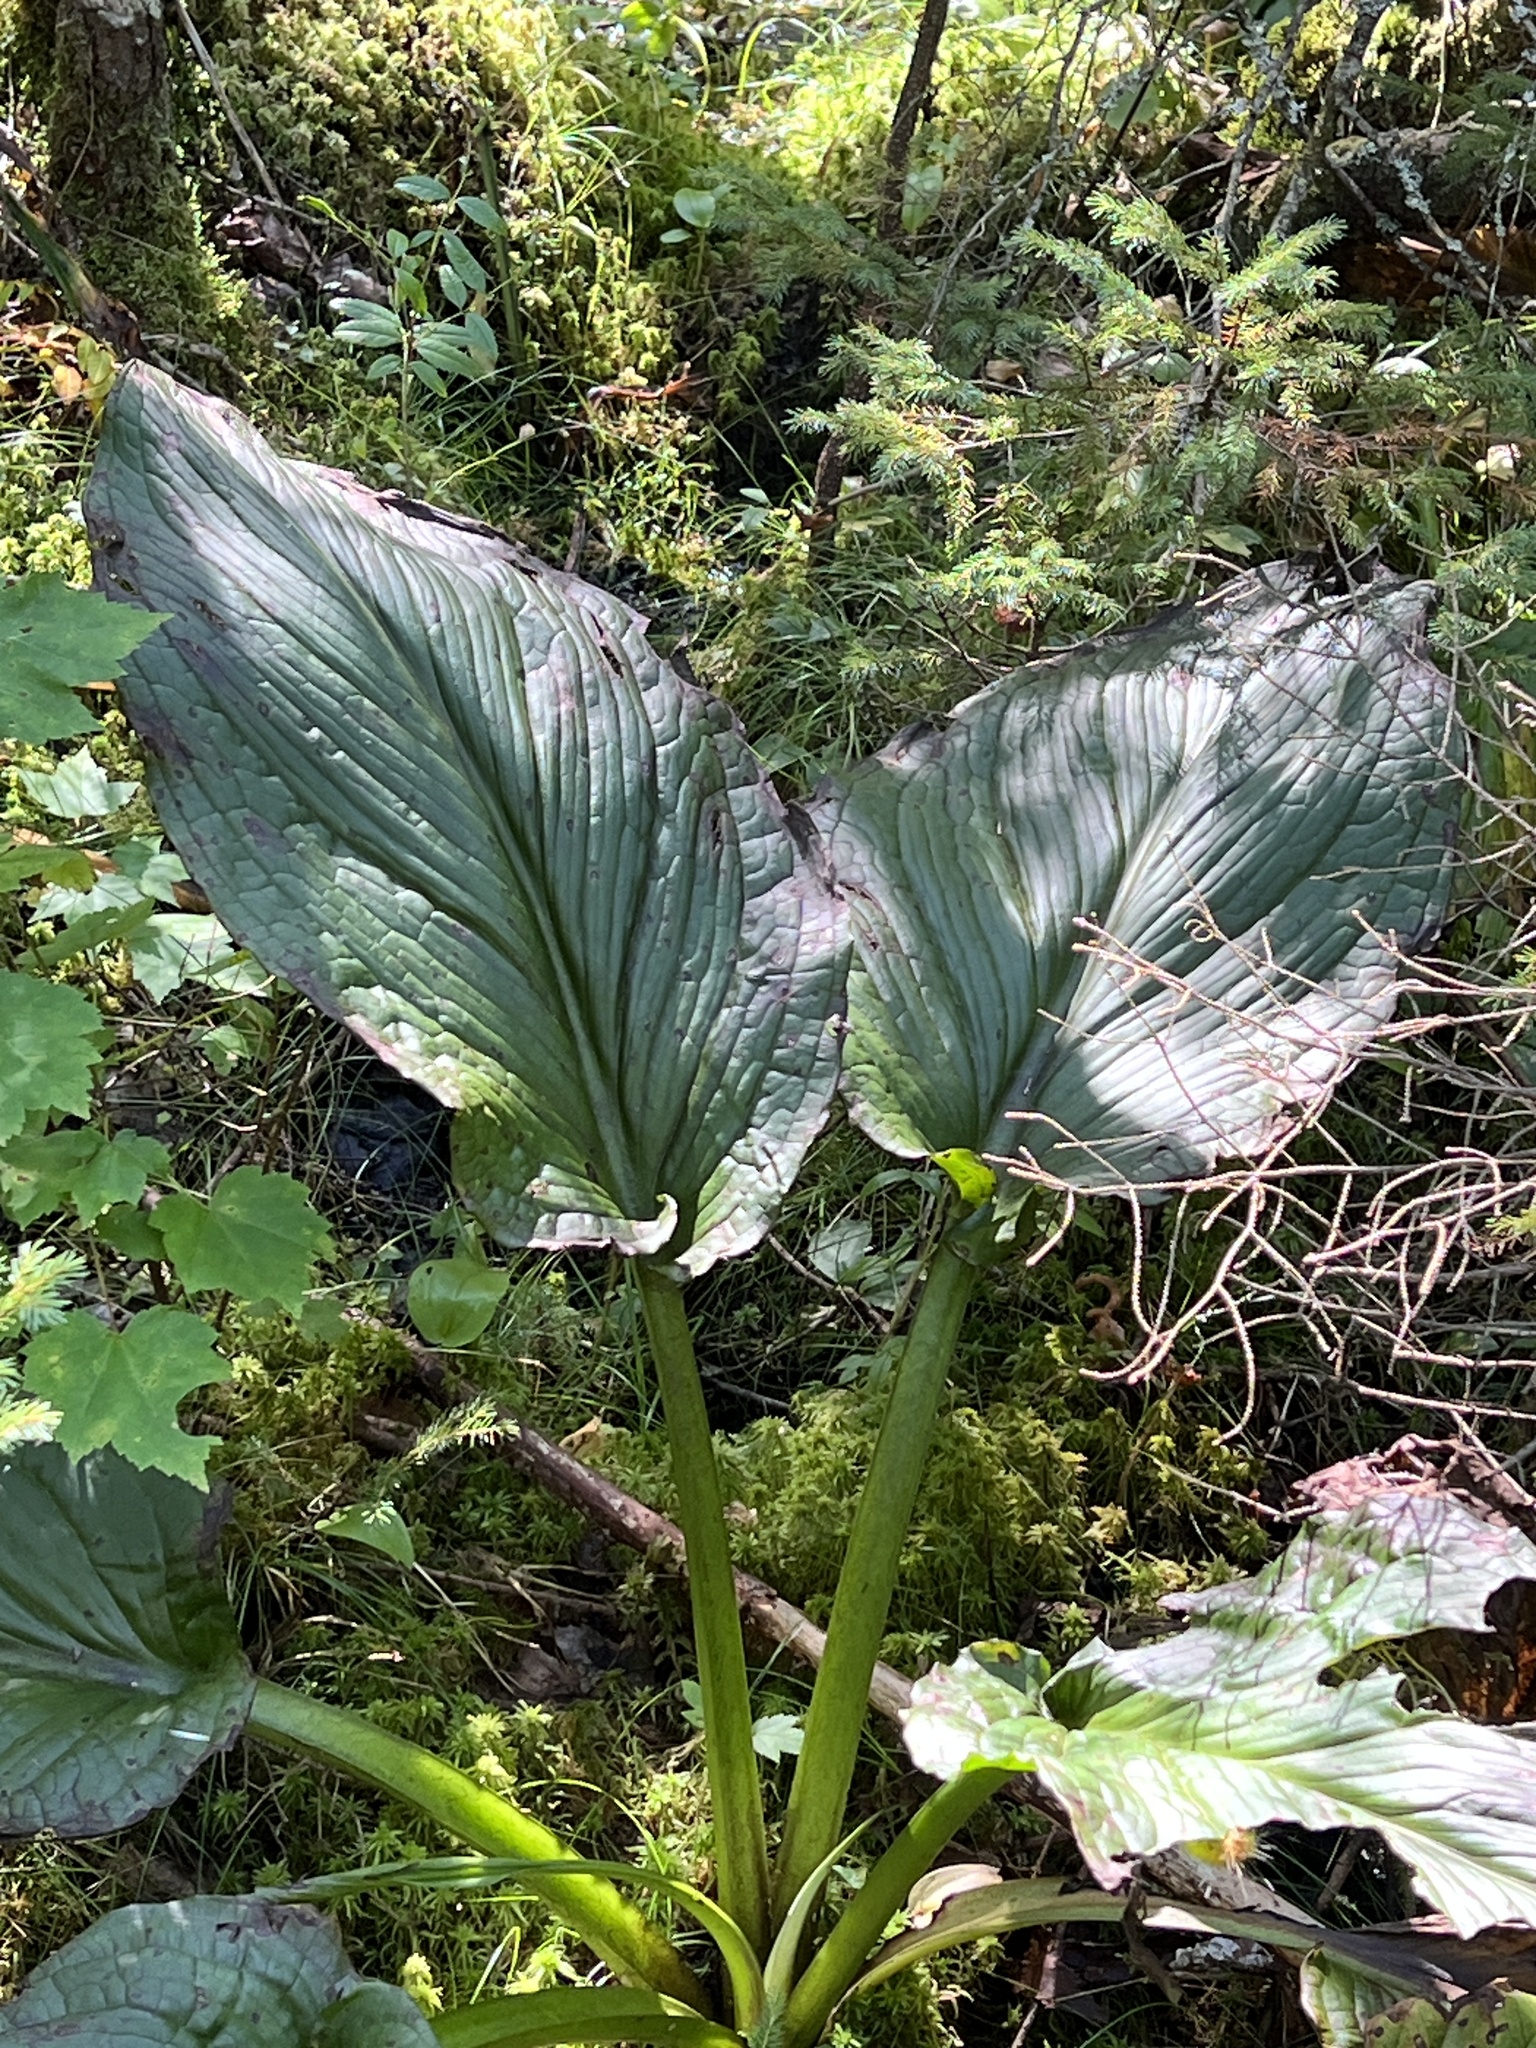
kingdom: Plantae
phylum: Tracheophyta
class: Liliopsida
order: Alismatales
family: Araceae
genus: Symplocarpus
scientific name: Symplocarpus foetidus
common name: Eastern skunk cabbage
